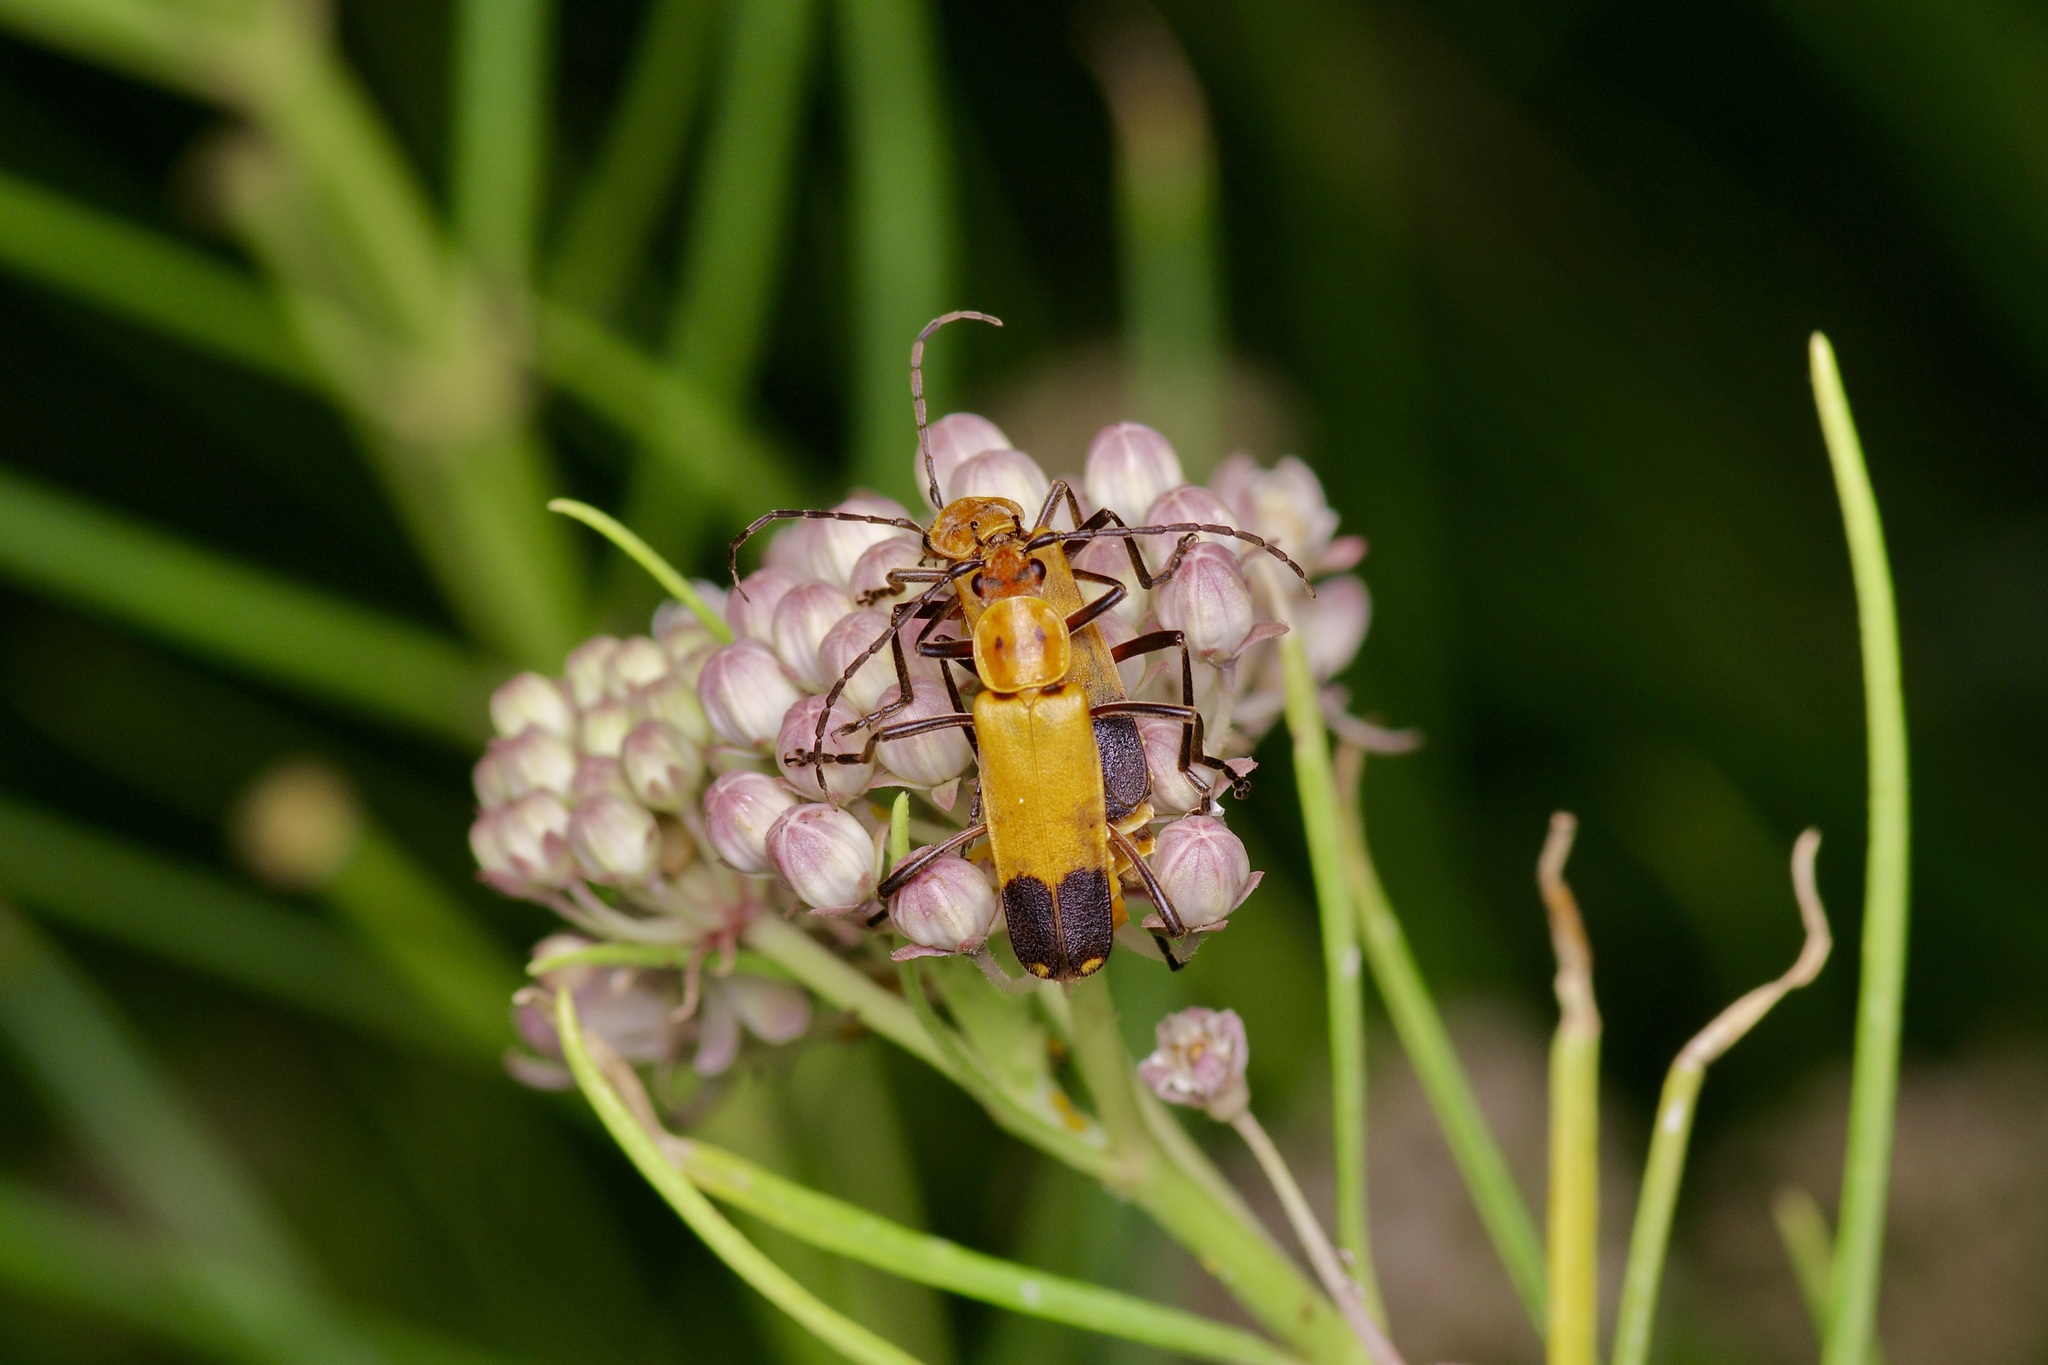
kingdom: Animalia
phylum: Arthropoda
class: Insecta
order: Coleoptera
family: Cantharidae
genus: Chauliognathus
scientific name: Chauliognathus discus
